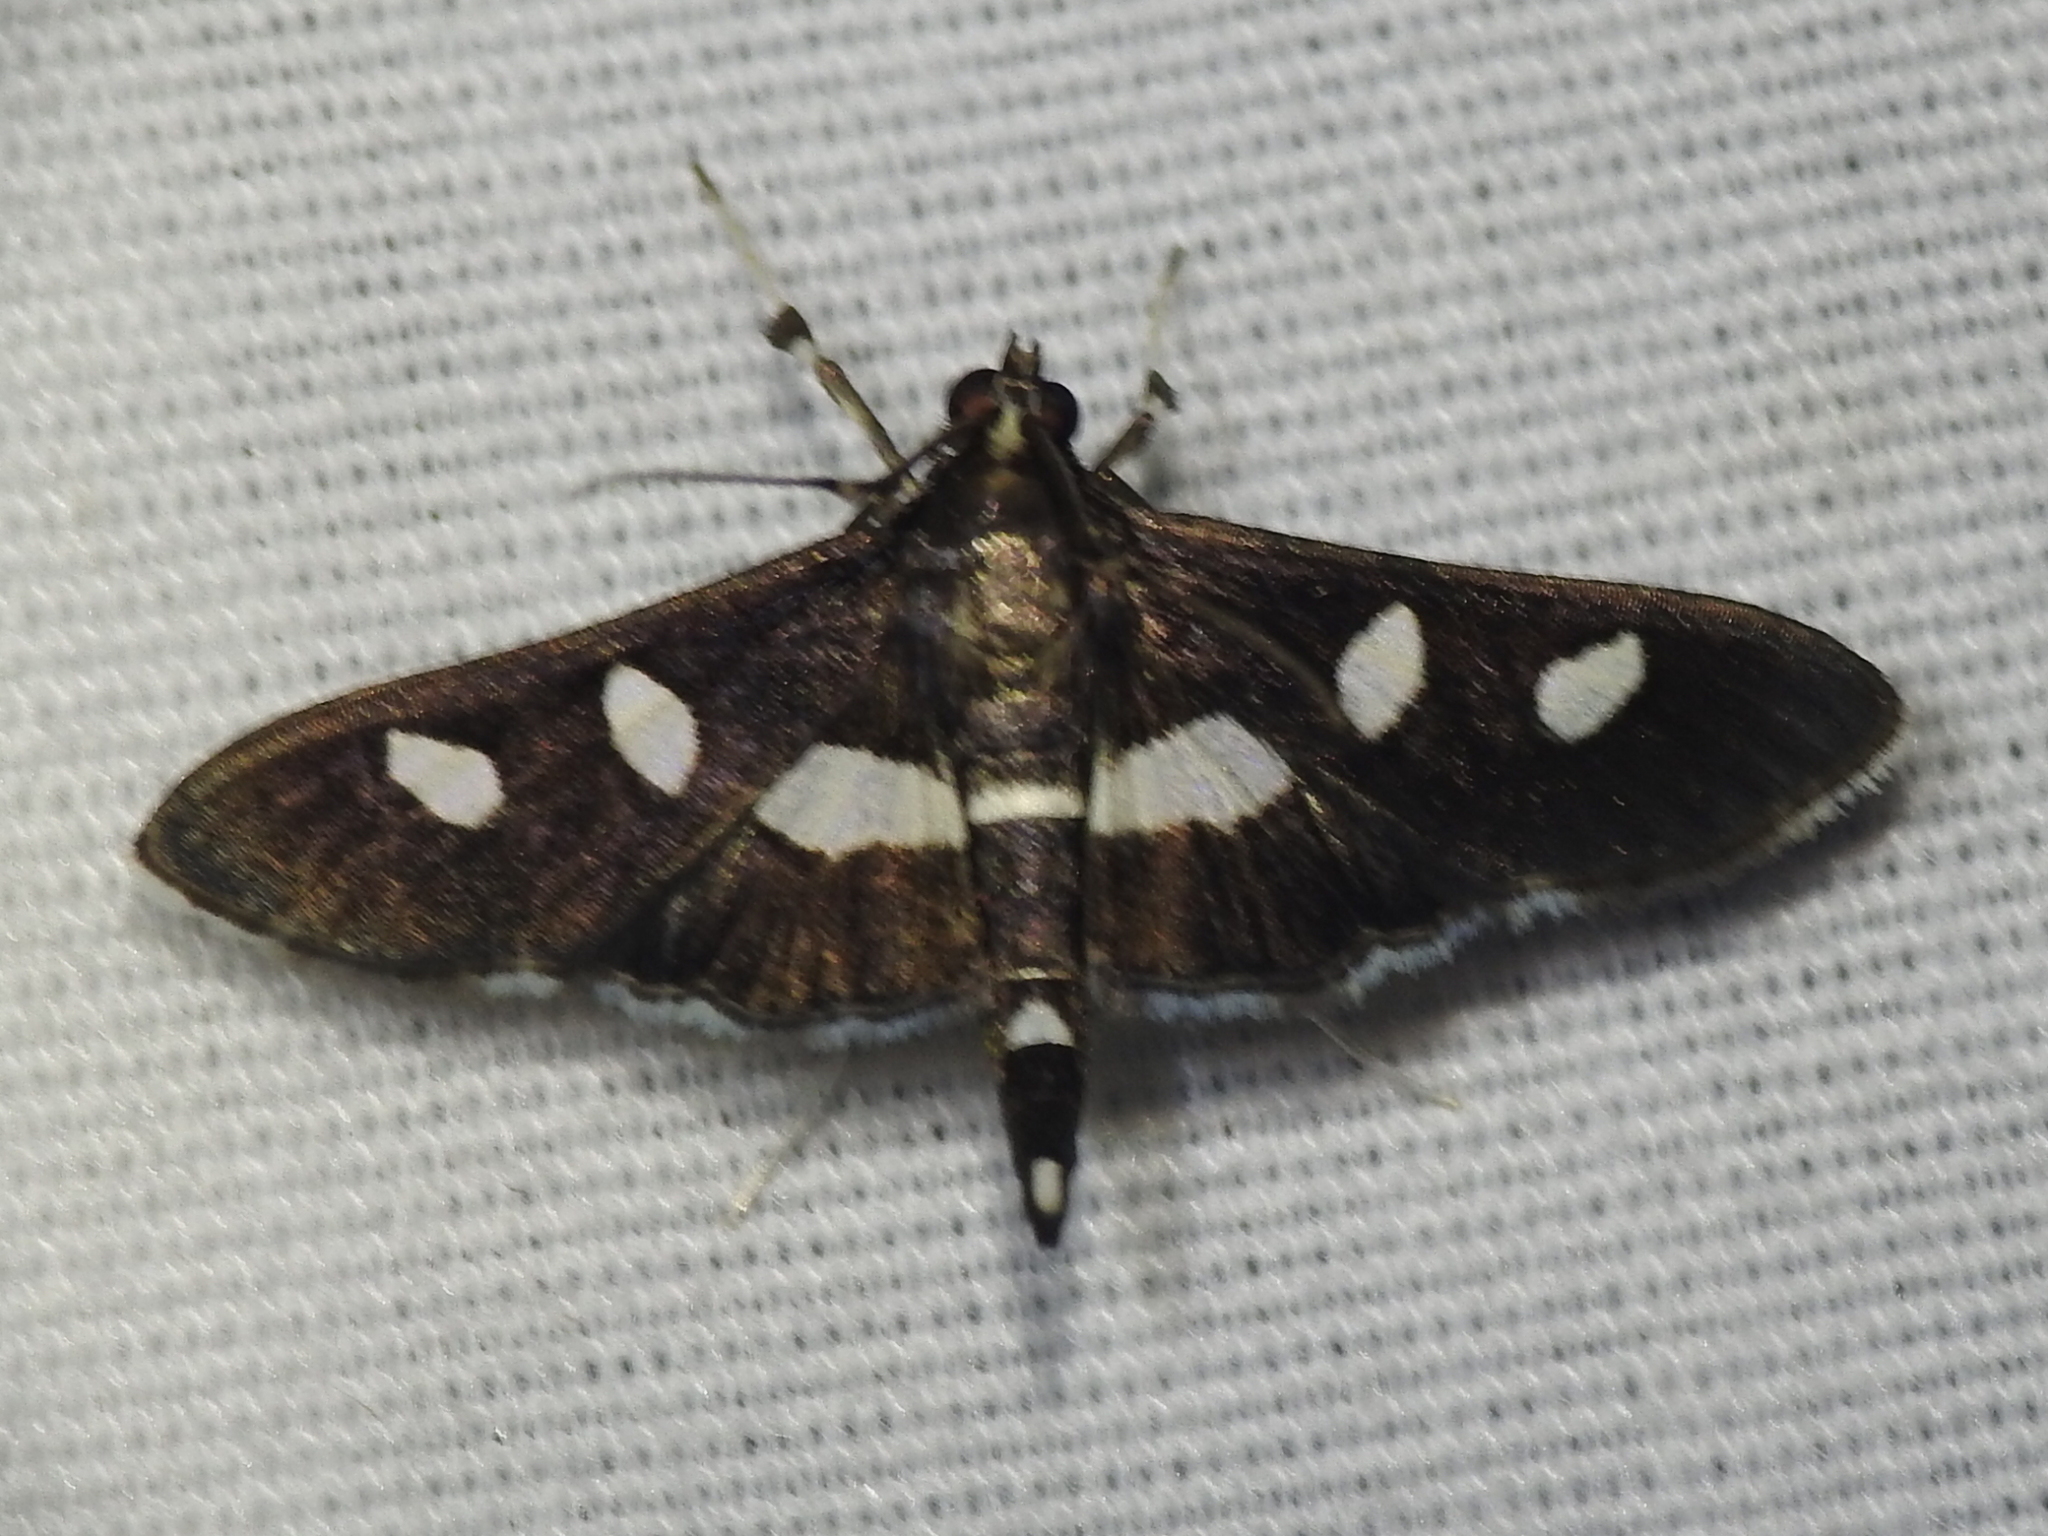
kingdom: Animalia
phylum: Arthropoda
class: Insecta
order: Lepidoptera
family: Crambidae
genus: Desmia
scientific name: Desmia
